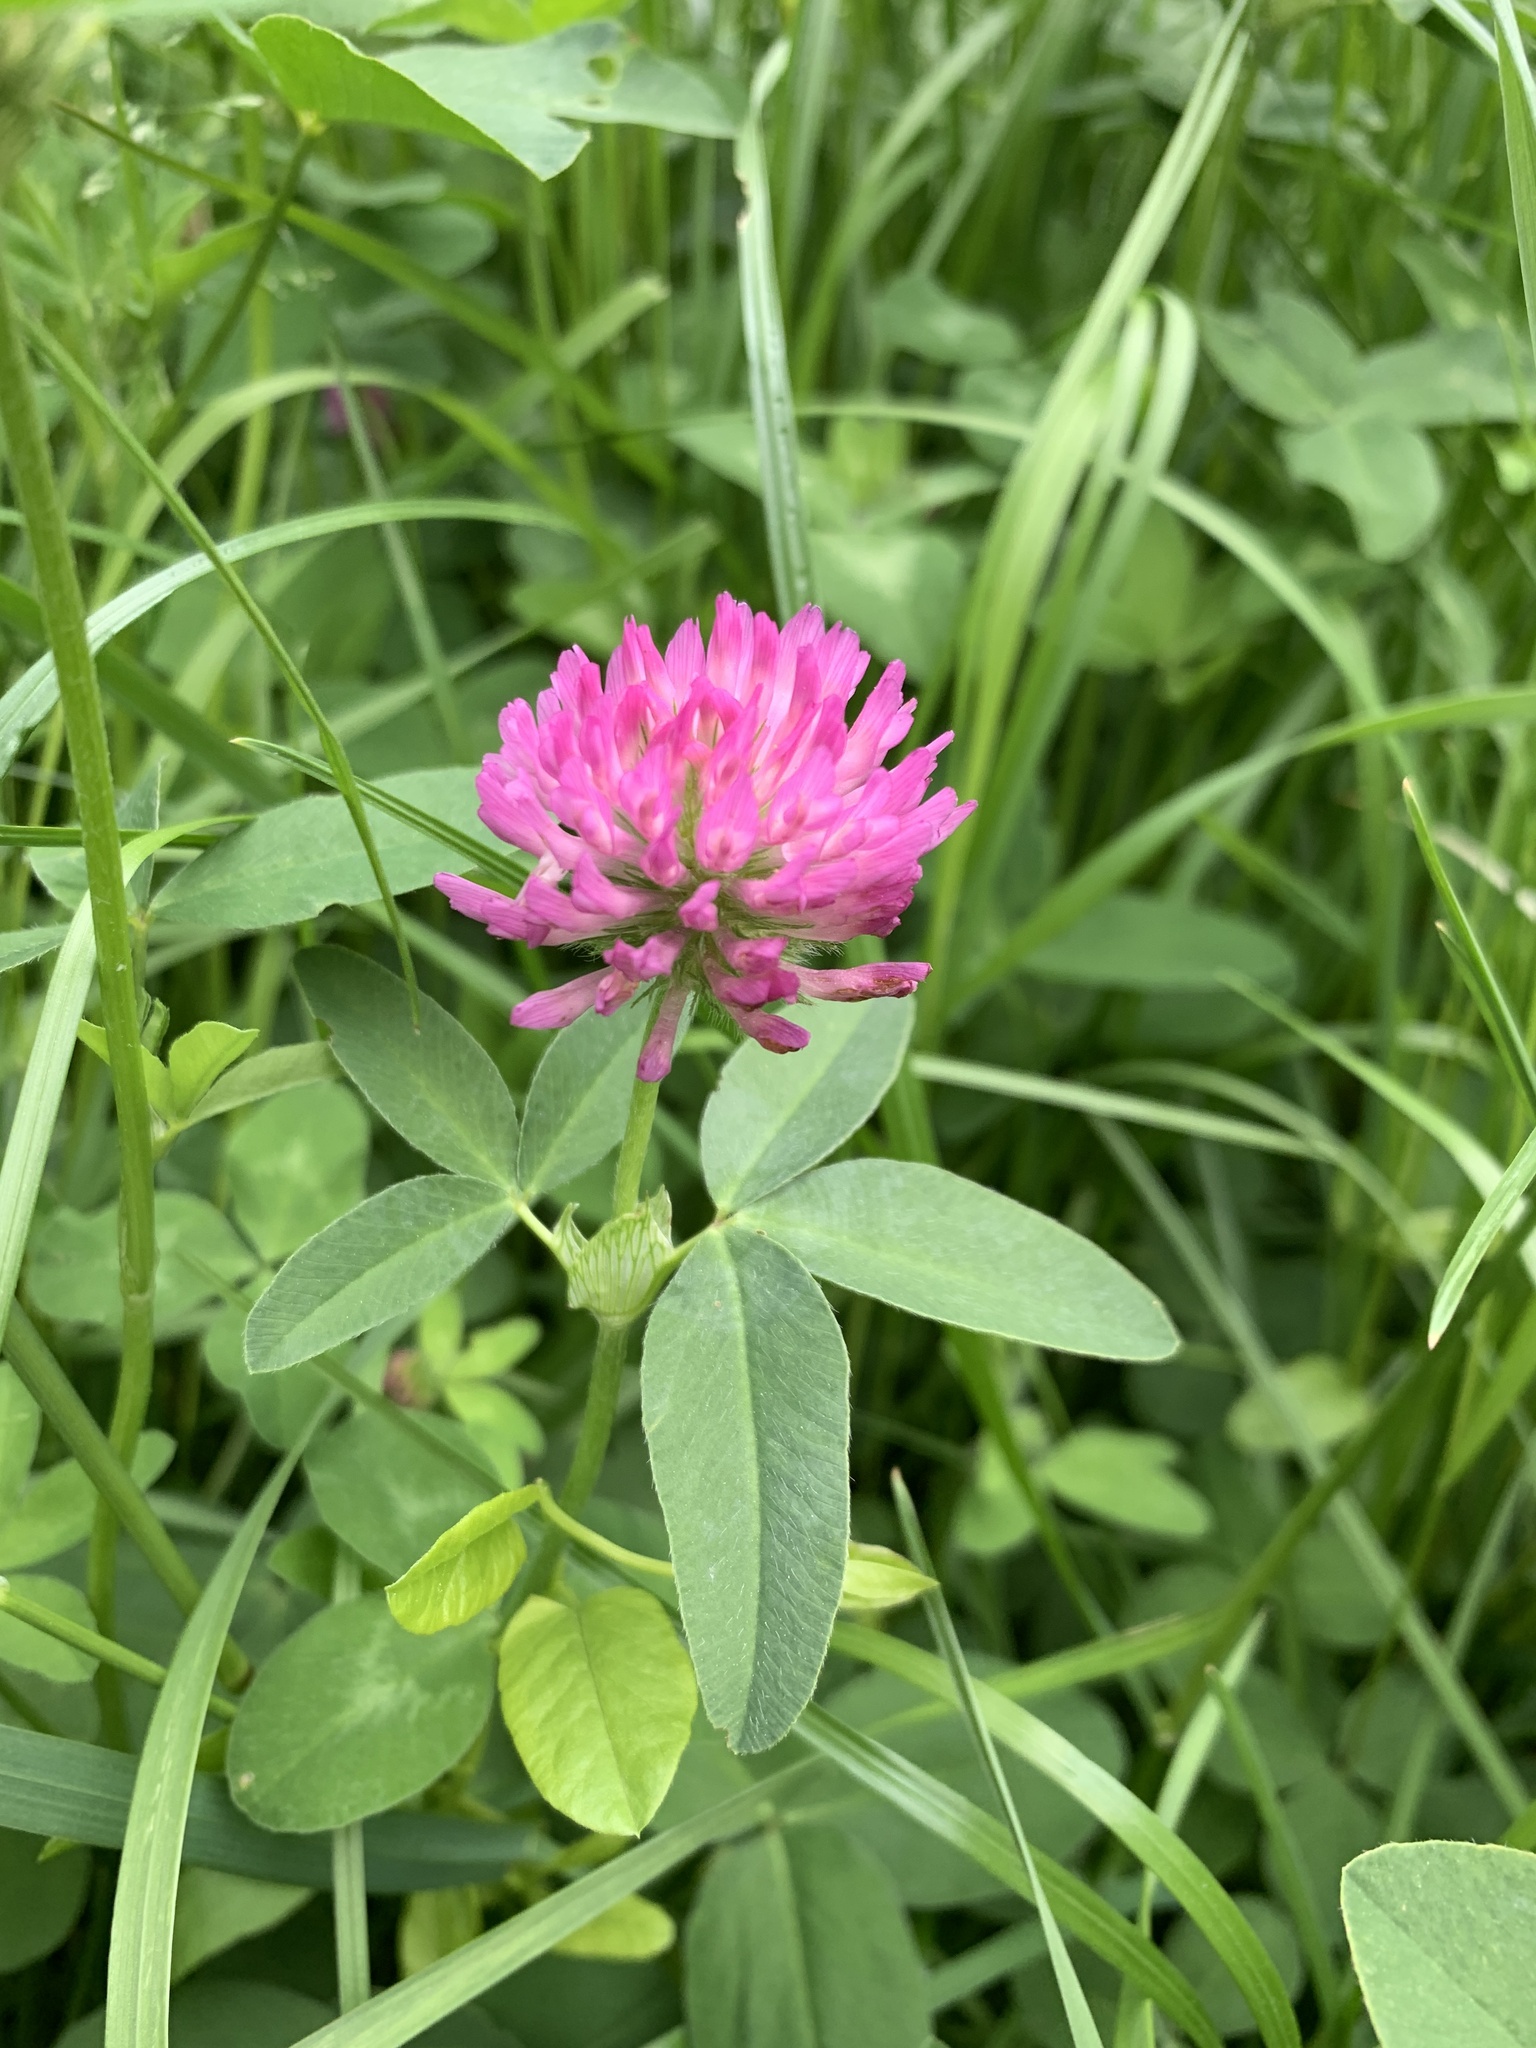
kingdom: Plantae
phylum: Tracheophyta
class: Magnoliopsida
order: Fabales
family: Fabaceae
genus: Trifolium
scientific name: Trifolium pratense
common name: Red clover
